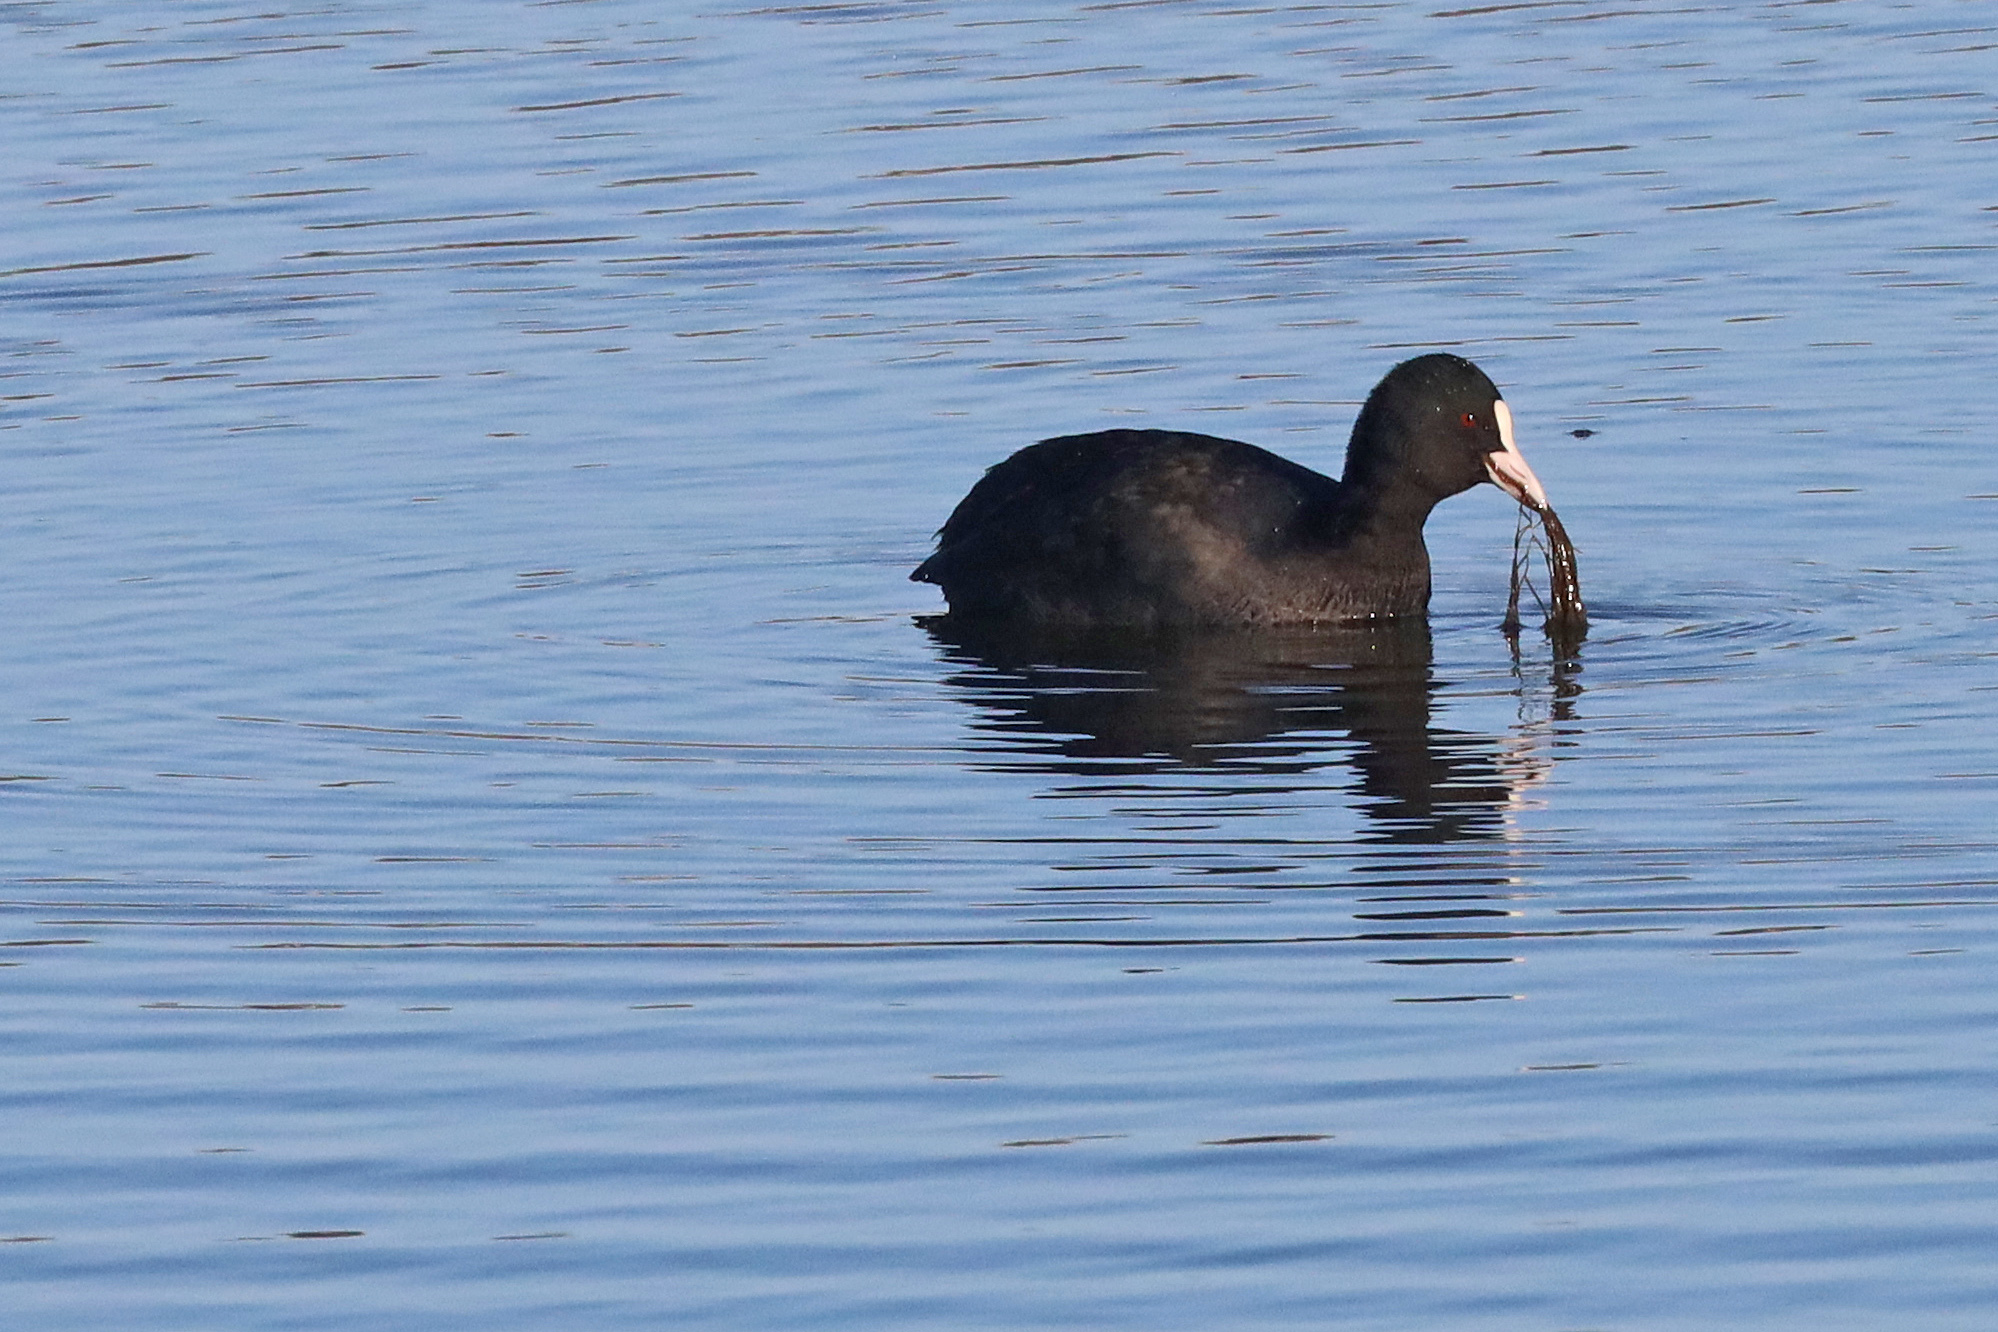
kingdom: Animalia
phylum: Chordata
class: Aves
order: Gruiformes
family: Rallidae
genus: Fulica
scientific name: Fulica atra
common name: Eurasian coot
